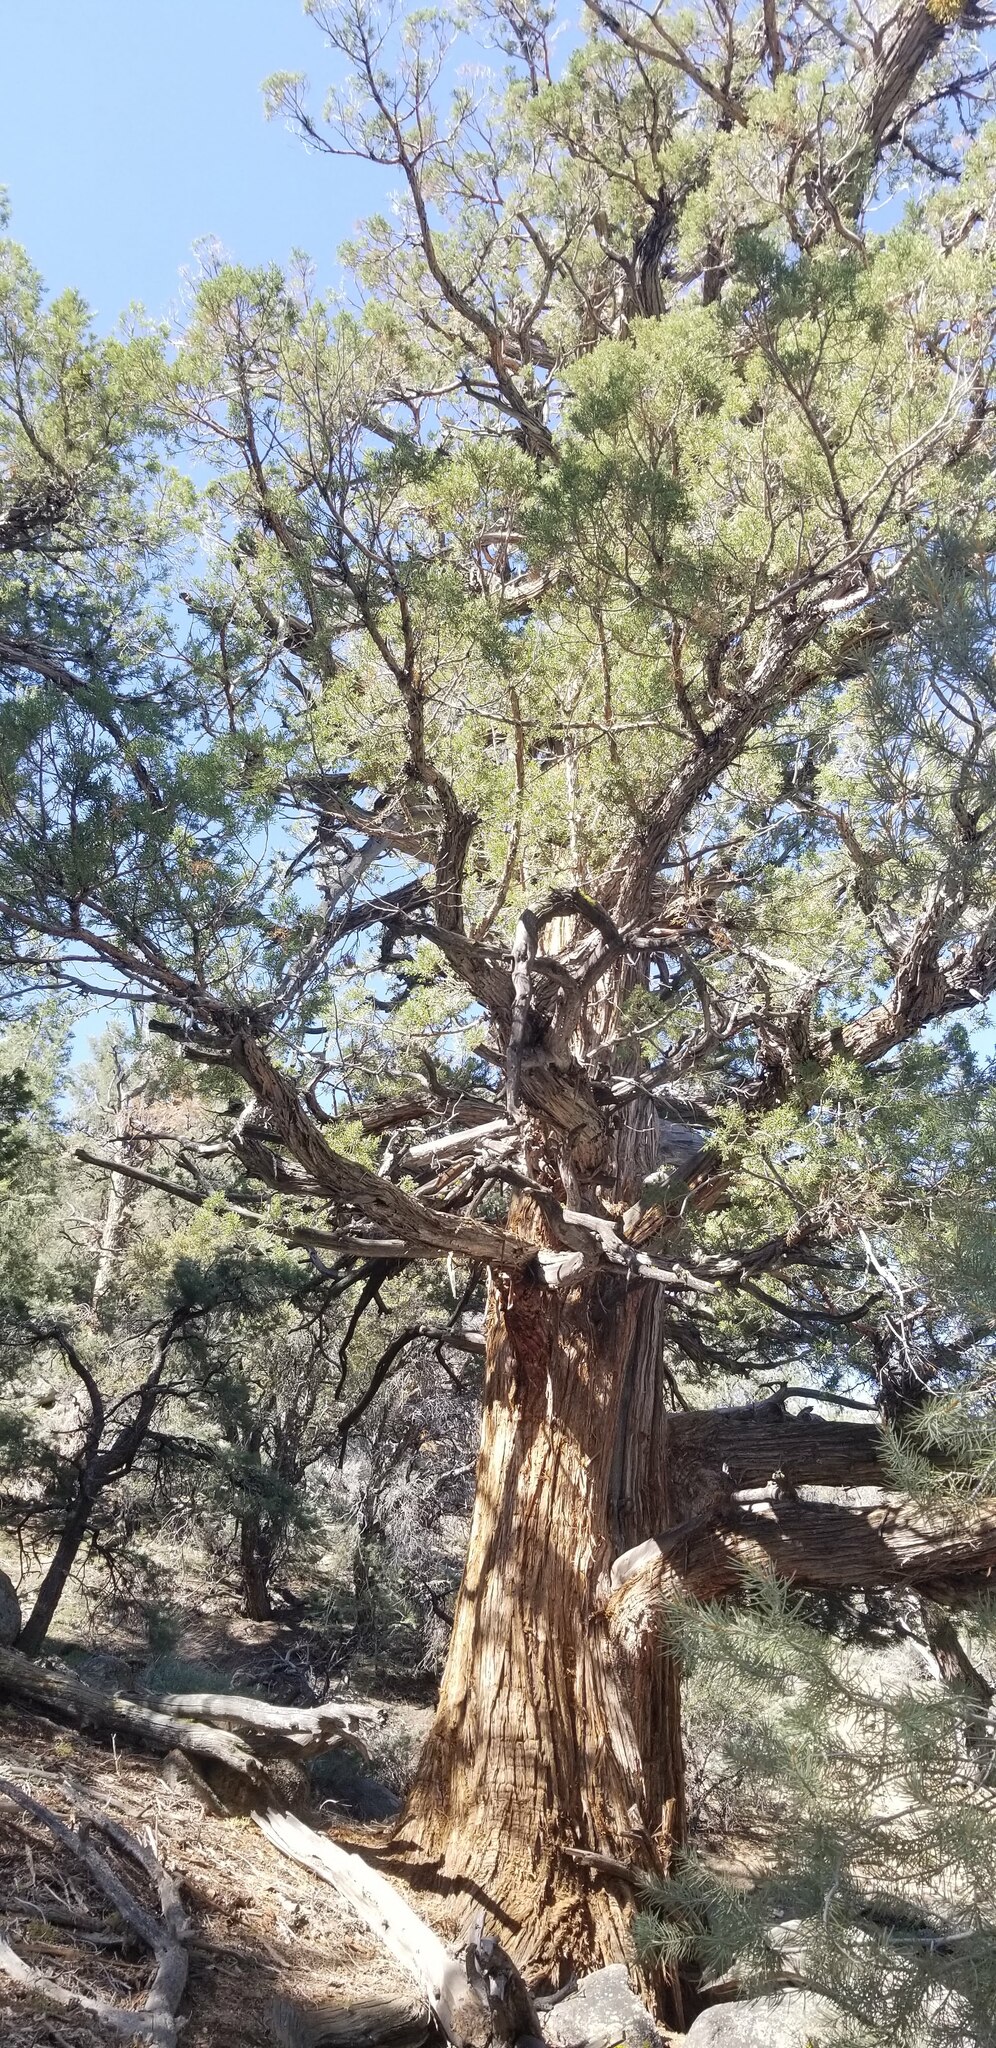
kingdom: Plantae
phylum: Tracheophyta
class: Pinopsida
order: Pinales
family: Cupressaceae
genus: Juniperus
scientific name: Juniperus occidentalis
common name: Western juniper
